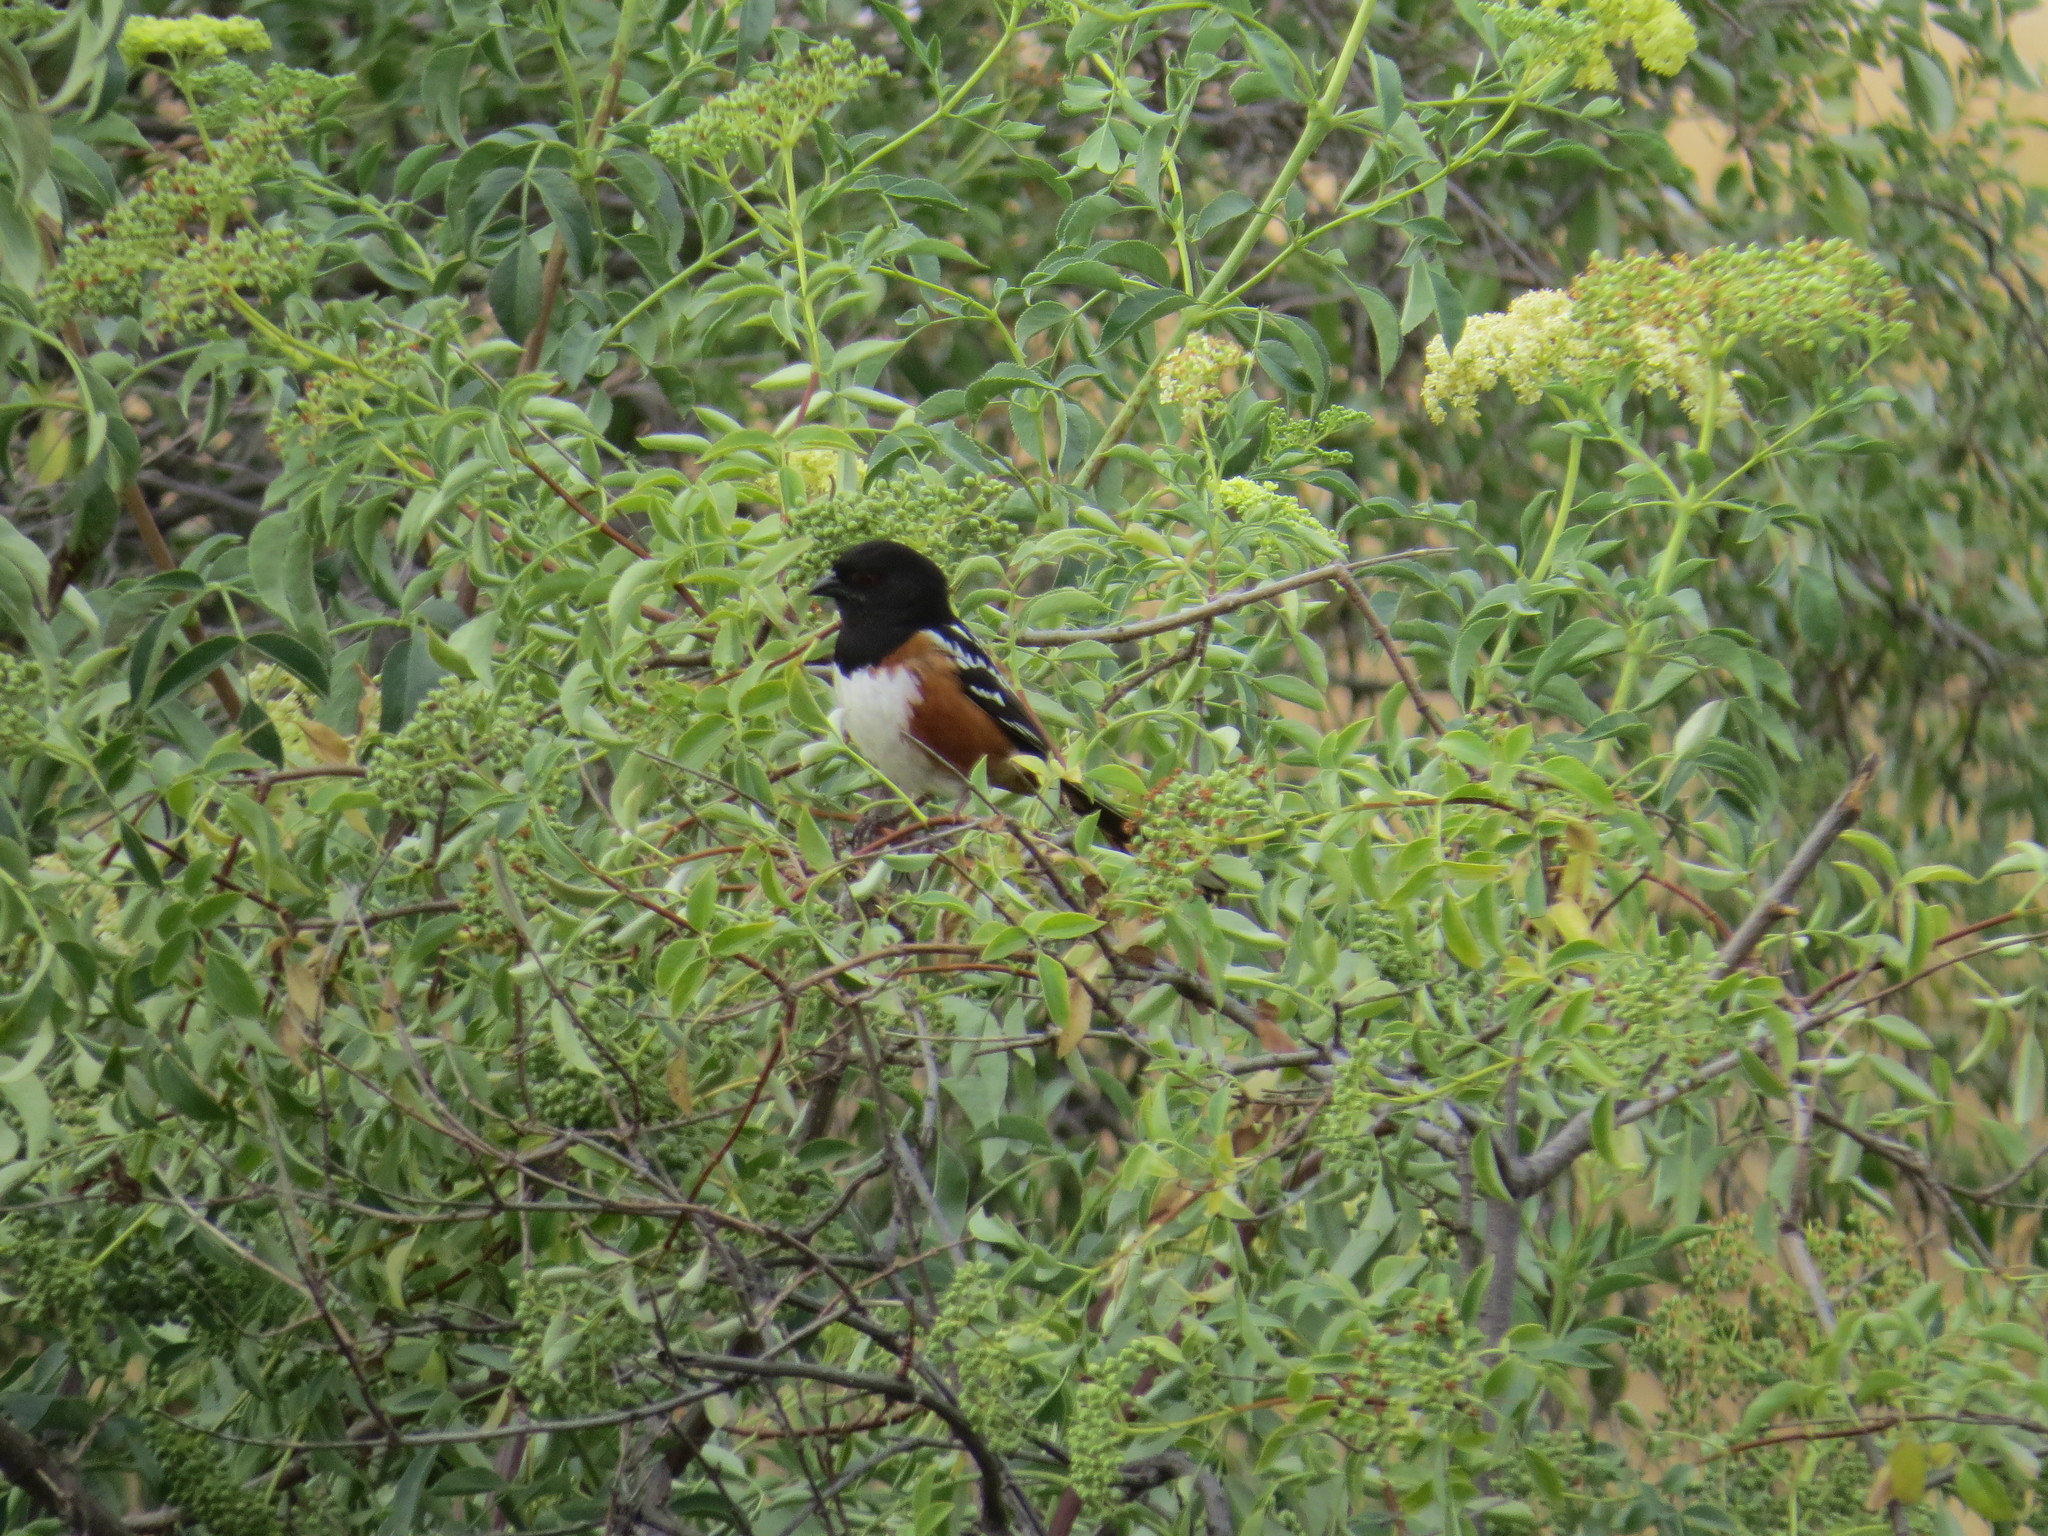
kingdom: Animalia
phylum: Chordata
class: Aves
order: Passeriformes
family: Passerellidae
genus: Pipilo
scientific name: Pipilo maculatus
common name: Spotted towhee
